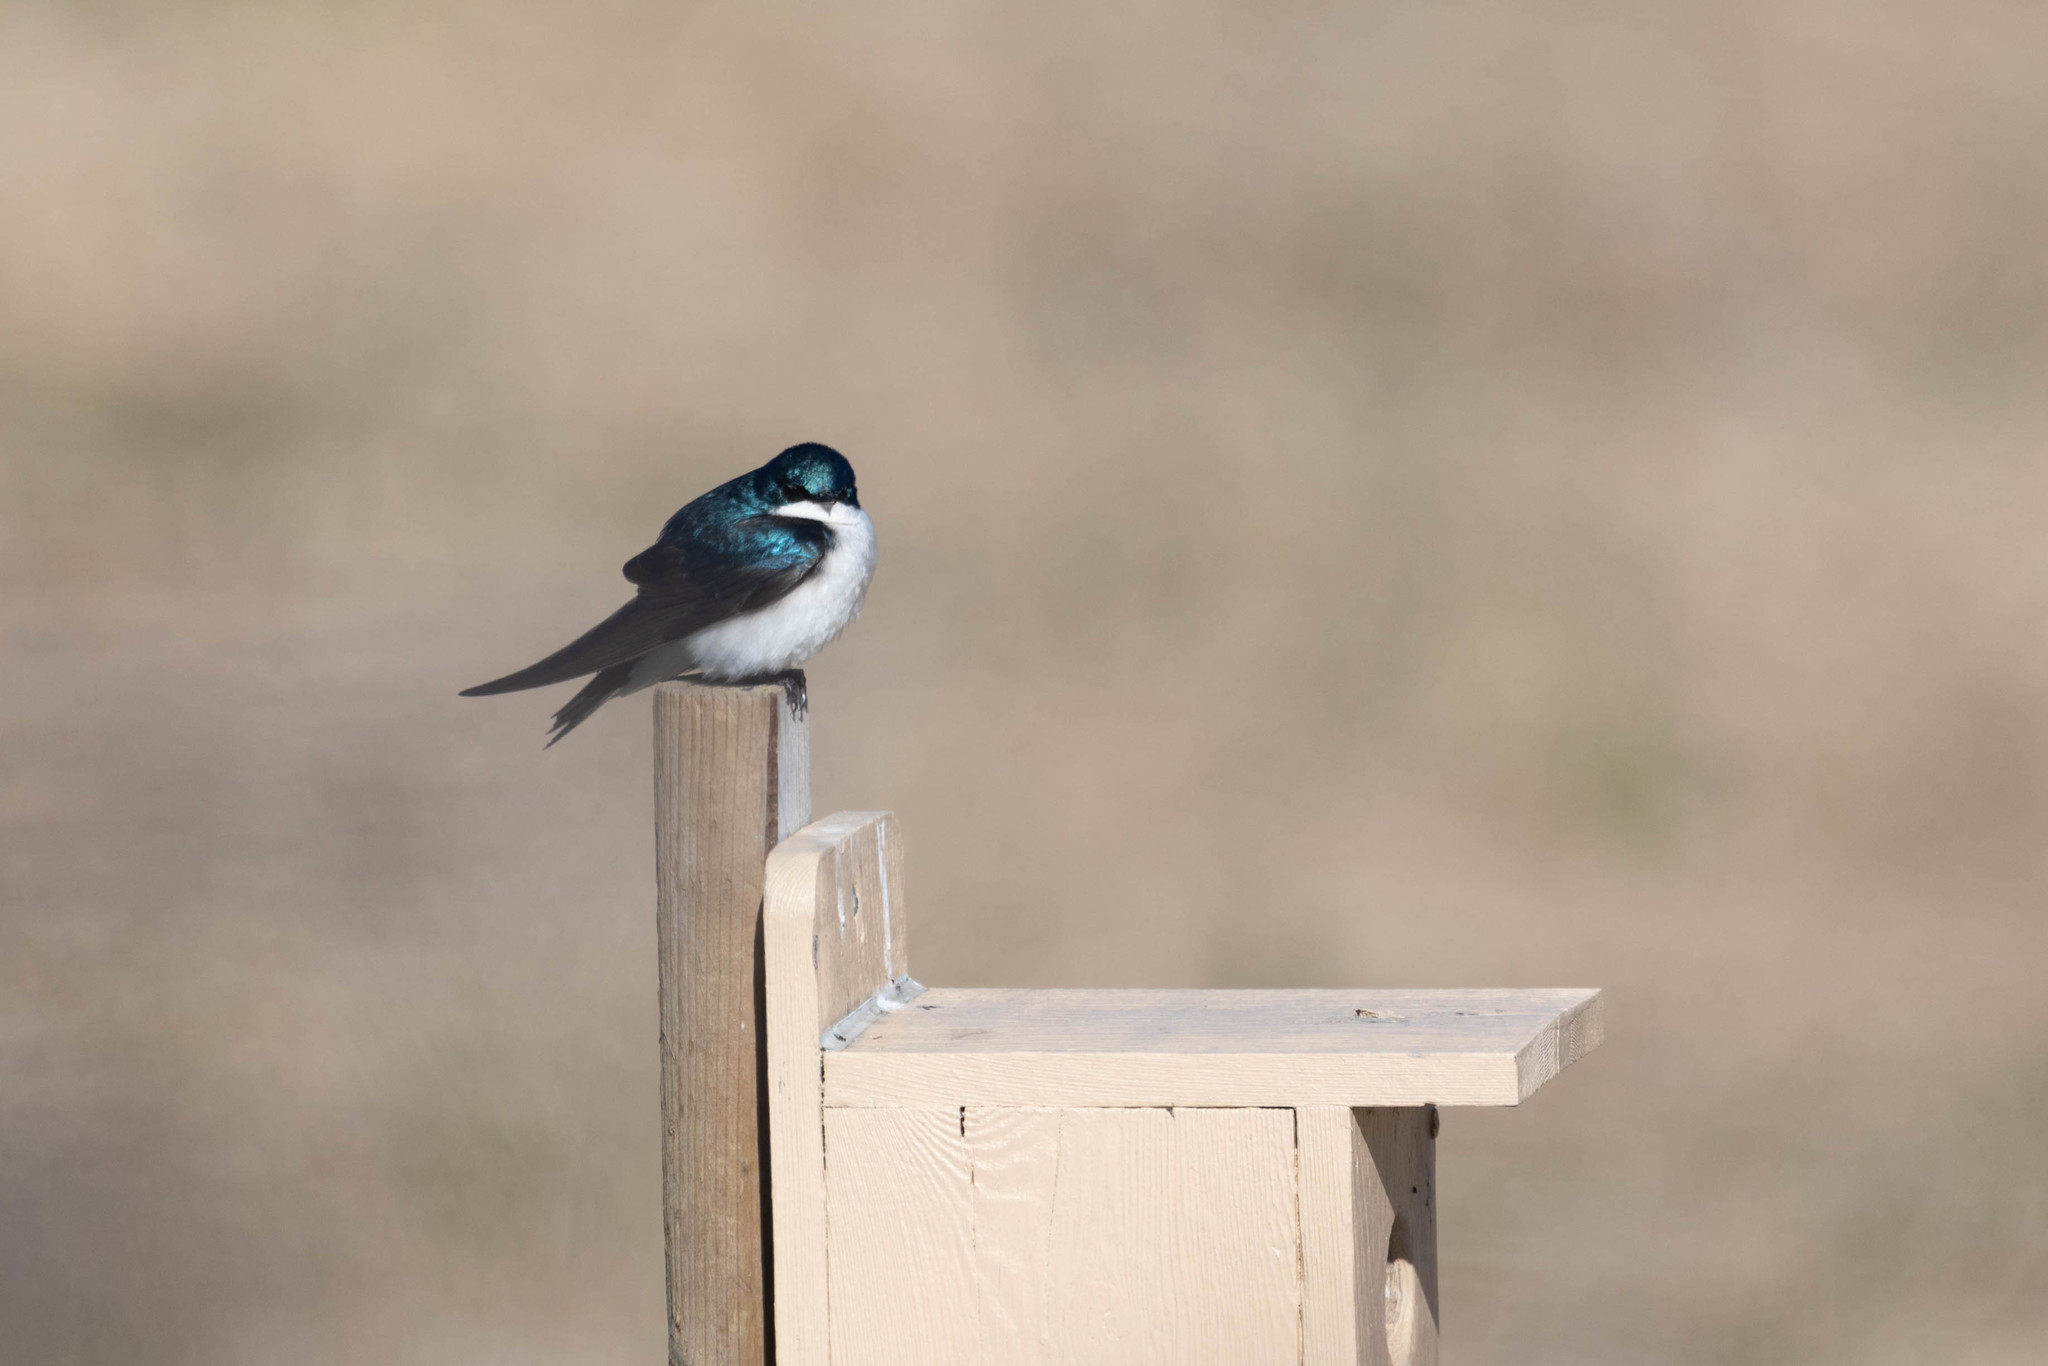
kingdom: Animalia
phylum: Chordata
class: Aves
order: Passeriformes
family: Hirundinidae
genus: Tachycineta
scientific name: Tachycineta bicolor
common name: Tree swallow
